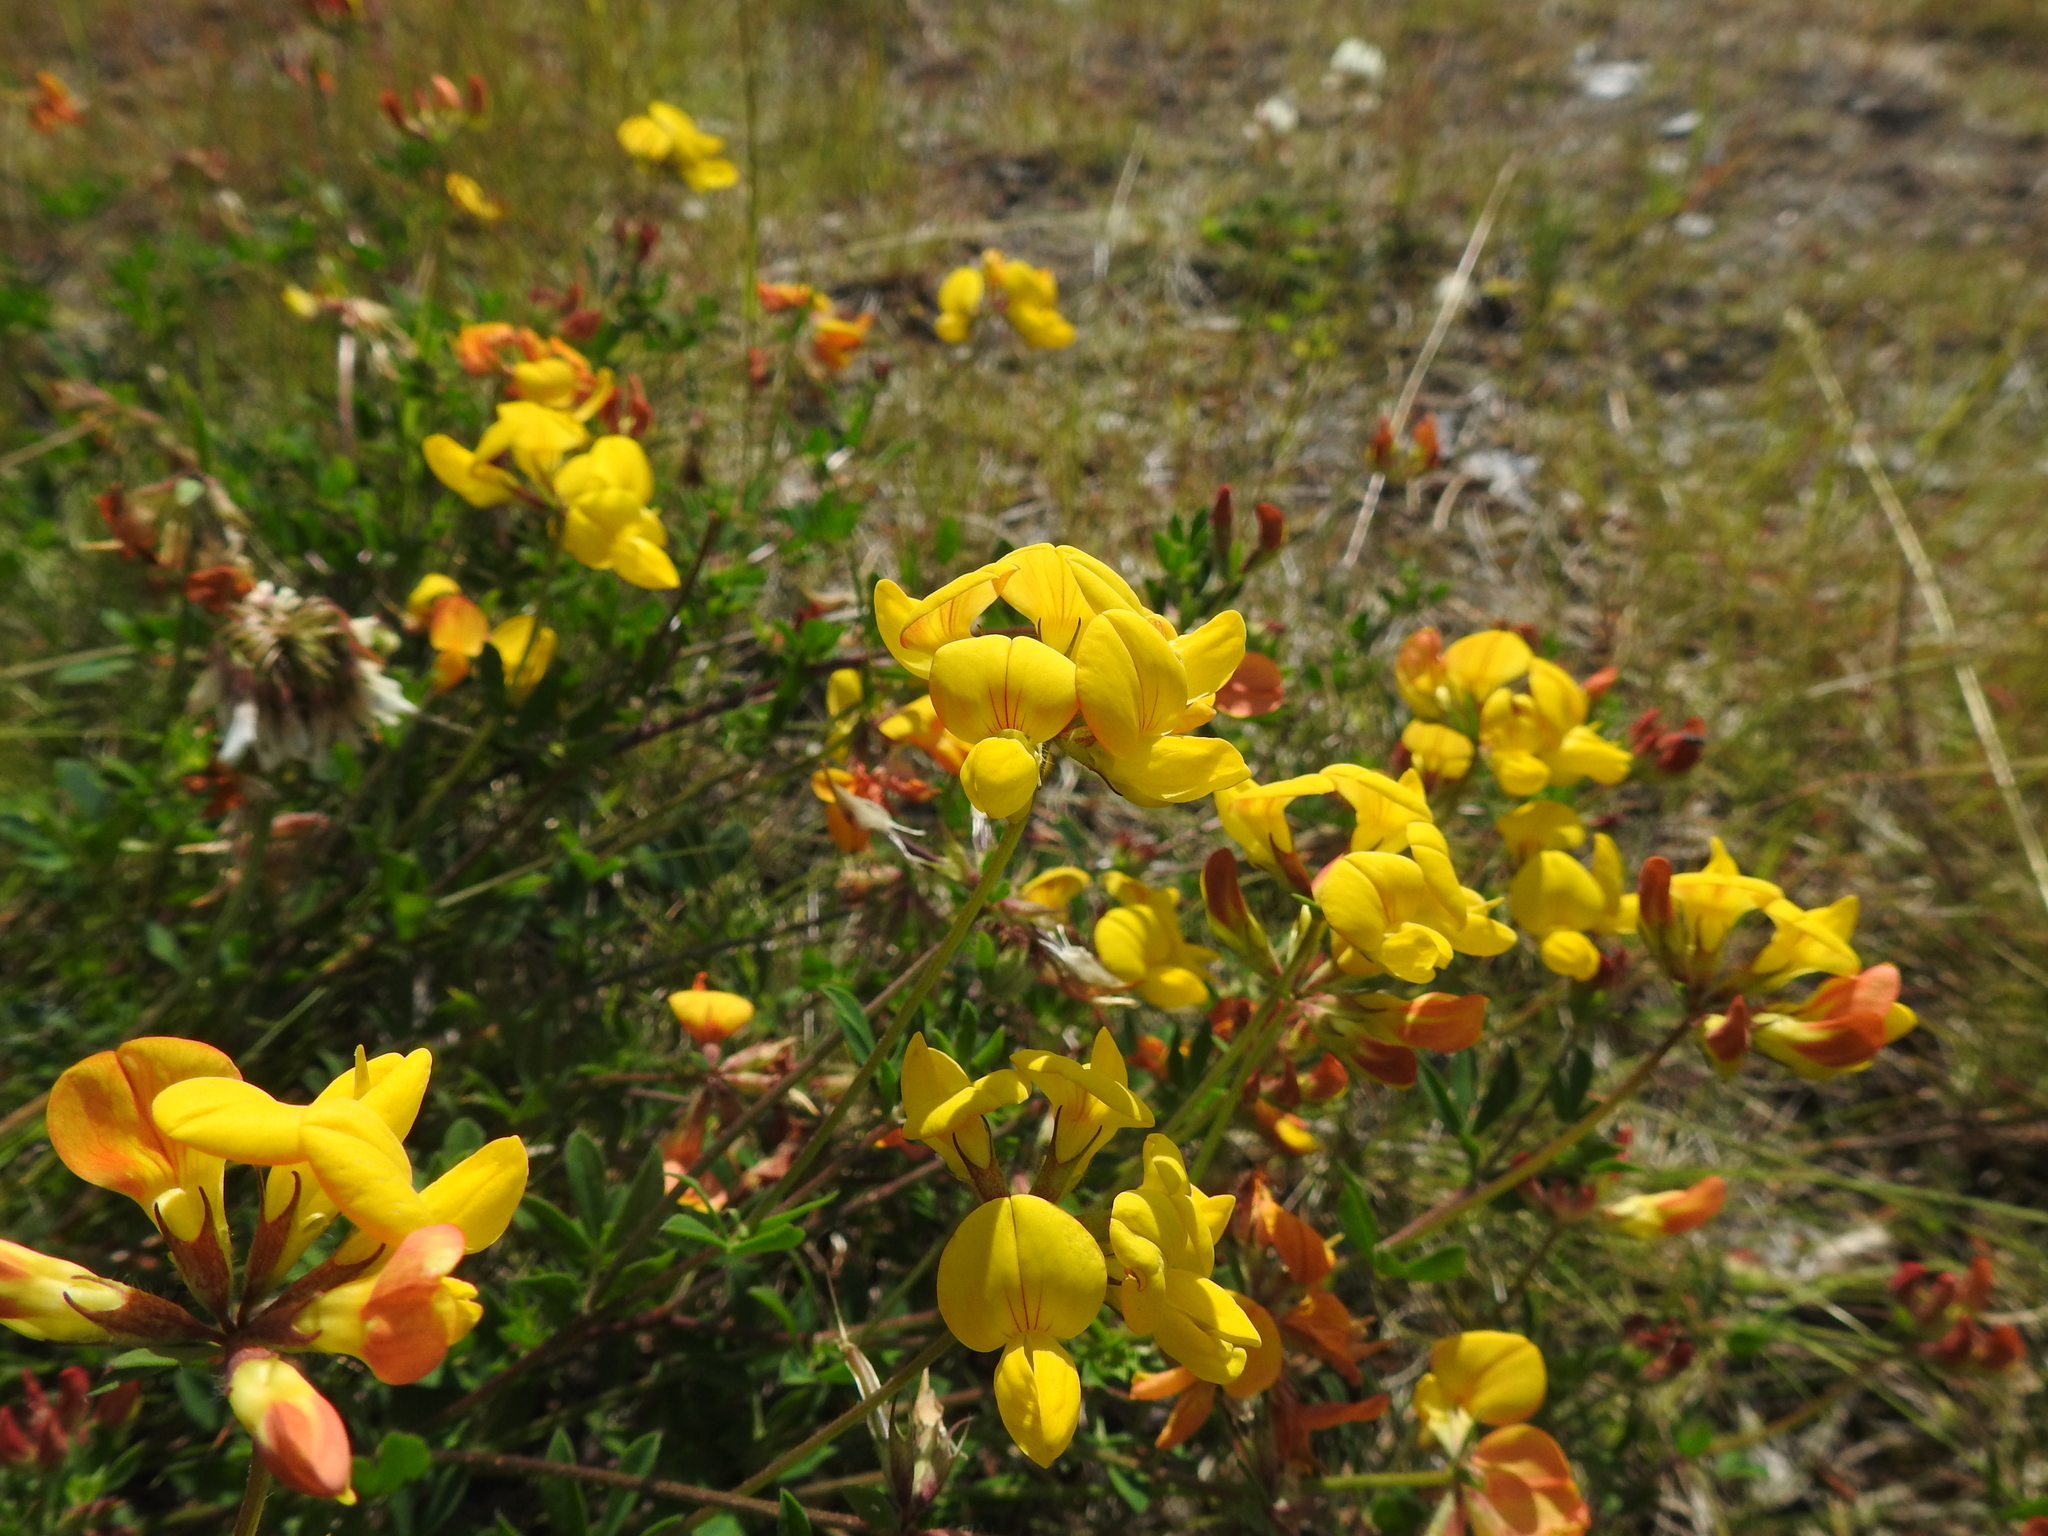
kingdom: Plantae
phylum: Tracheophyta
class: Magnoliopsida
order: Fabales
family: Fabaceae
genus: Lotus
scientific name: Lotus corniculatus
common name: Common bird's-foot-trefoil
